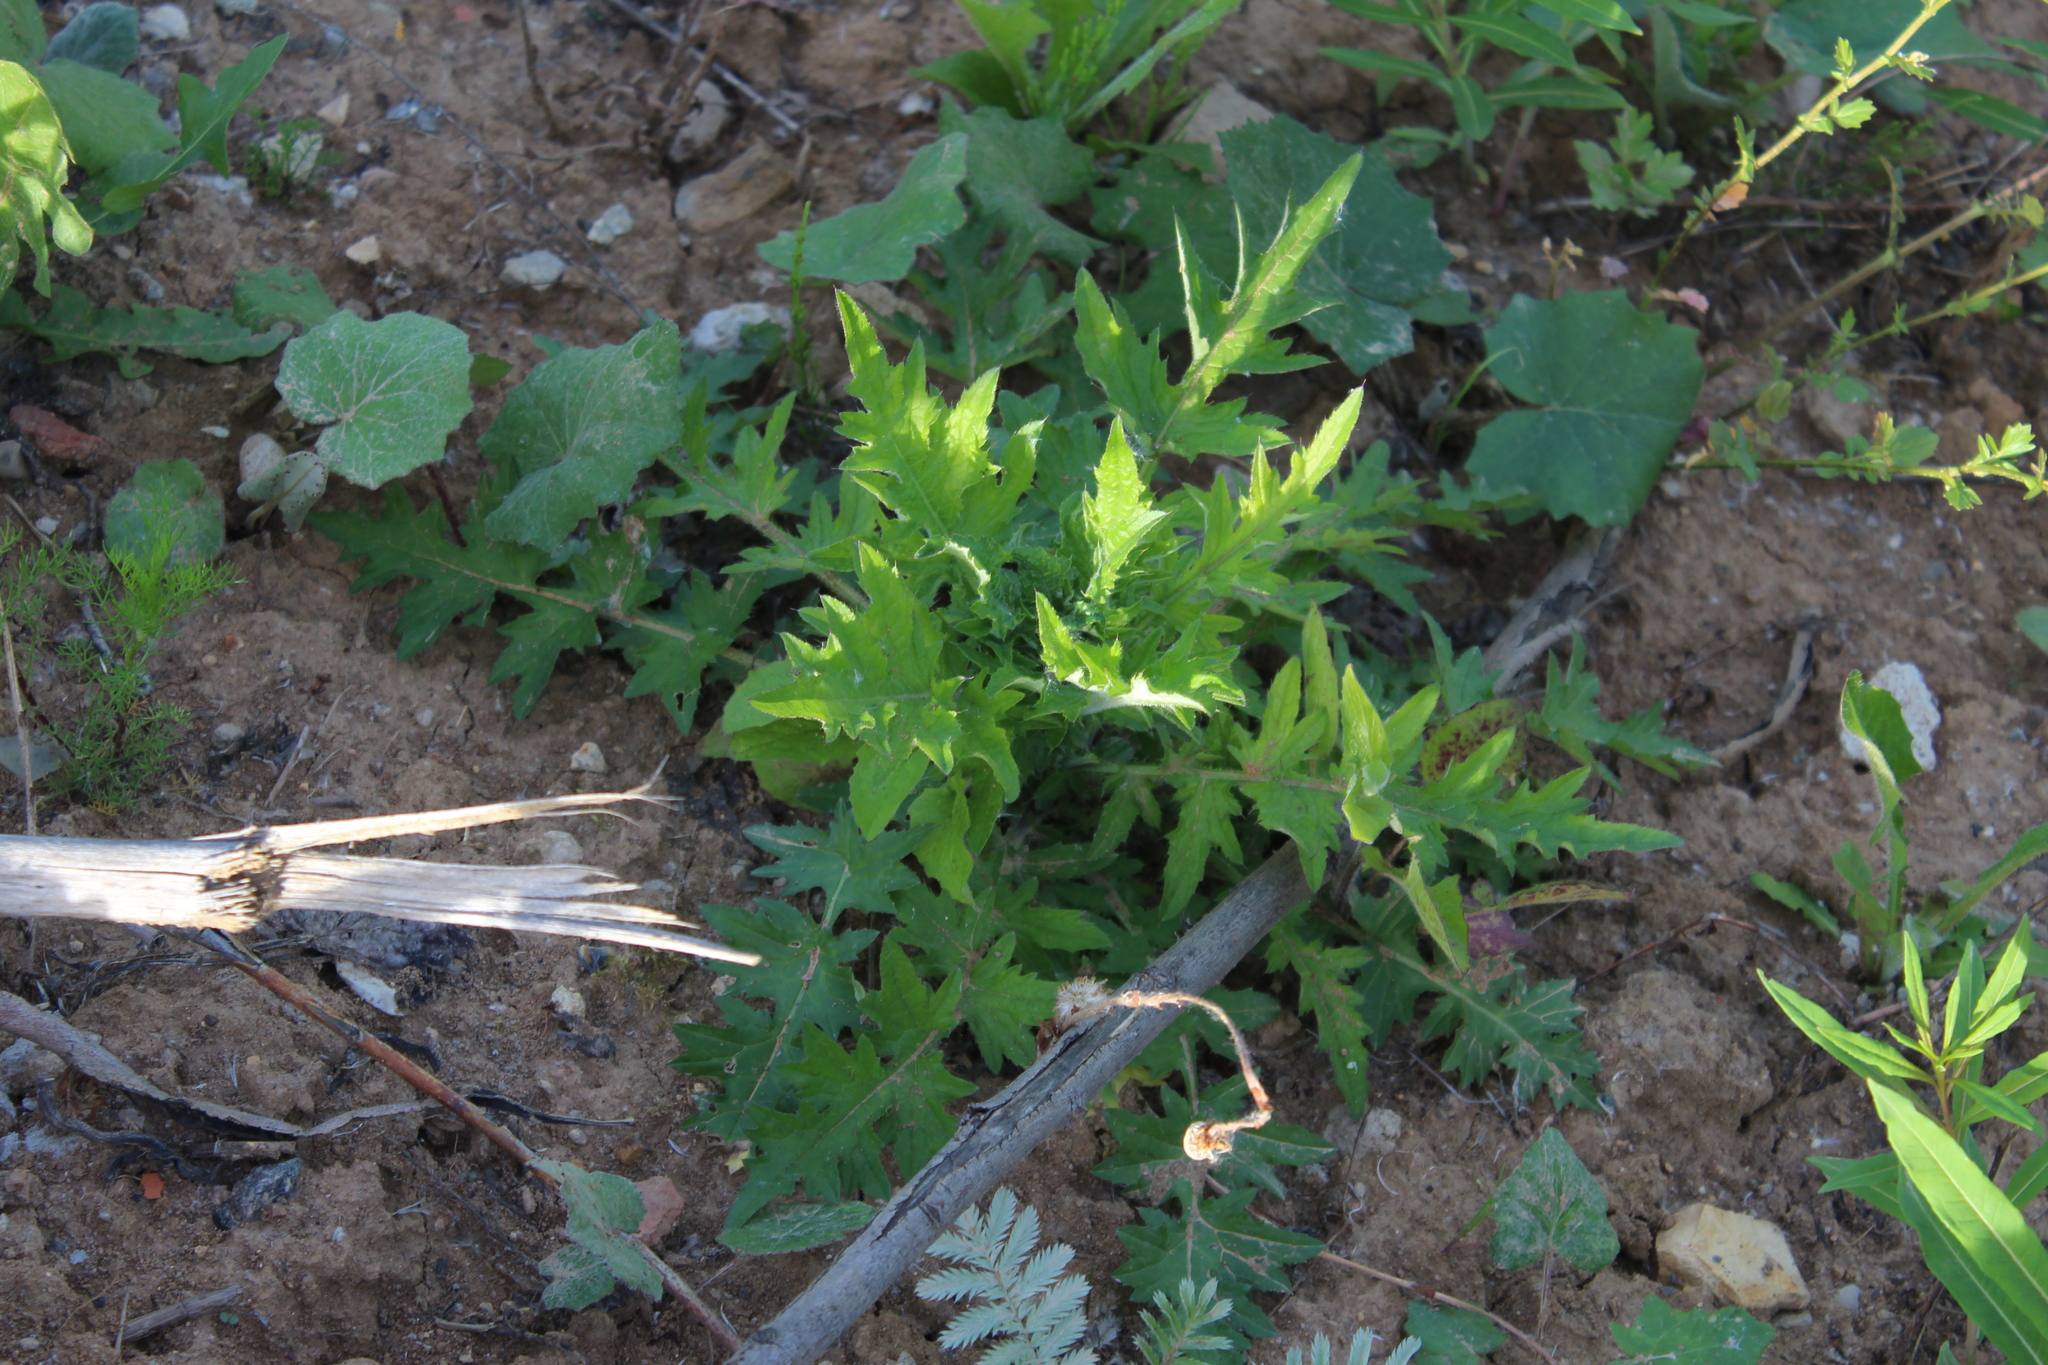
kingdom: Plantae
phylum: Tracheophyta
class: Magnoliopsida
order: Asterales
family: Asteraceae
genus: Carduus
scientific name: Carduus crispus
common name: Welted thistle
